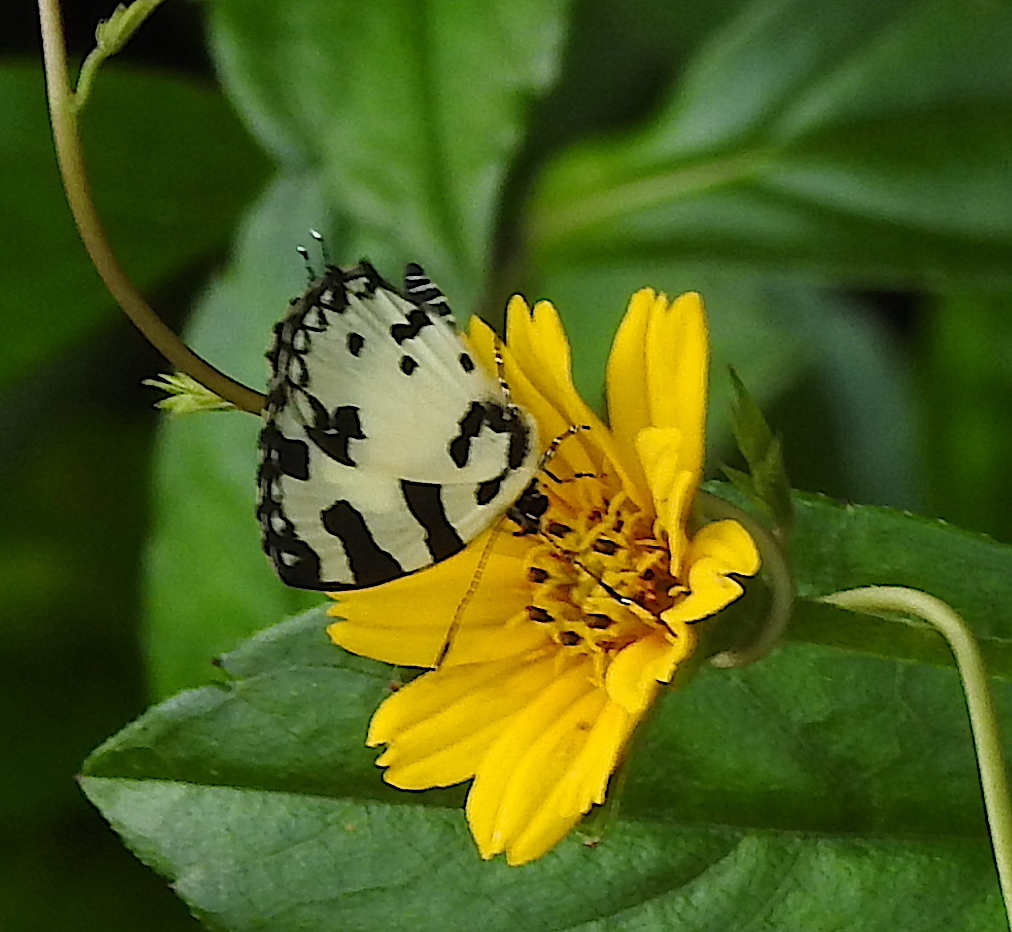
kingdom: Animalia
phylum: Arthropoda
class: Insecta
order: Lepidoptera
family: Lycaenidae
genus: Caleta
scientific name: Caleta decidia
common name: Angled pierrot
